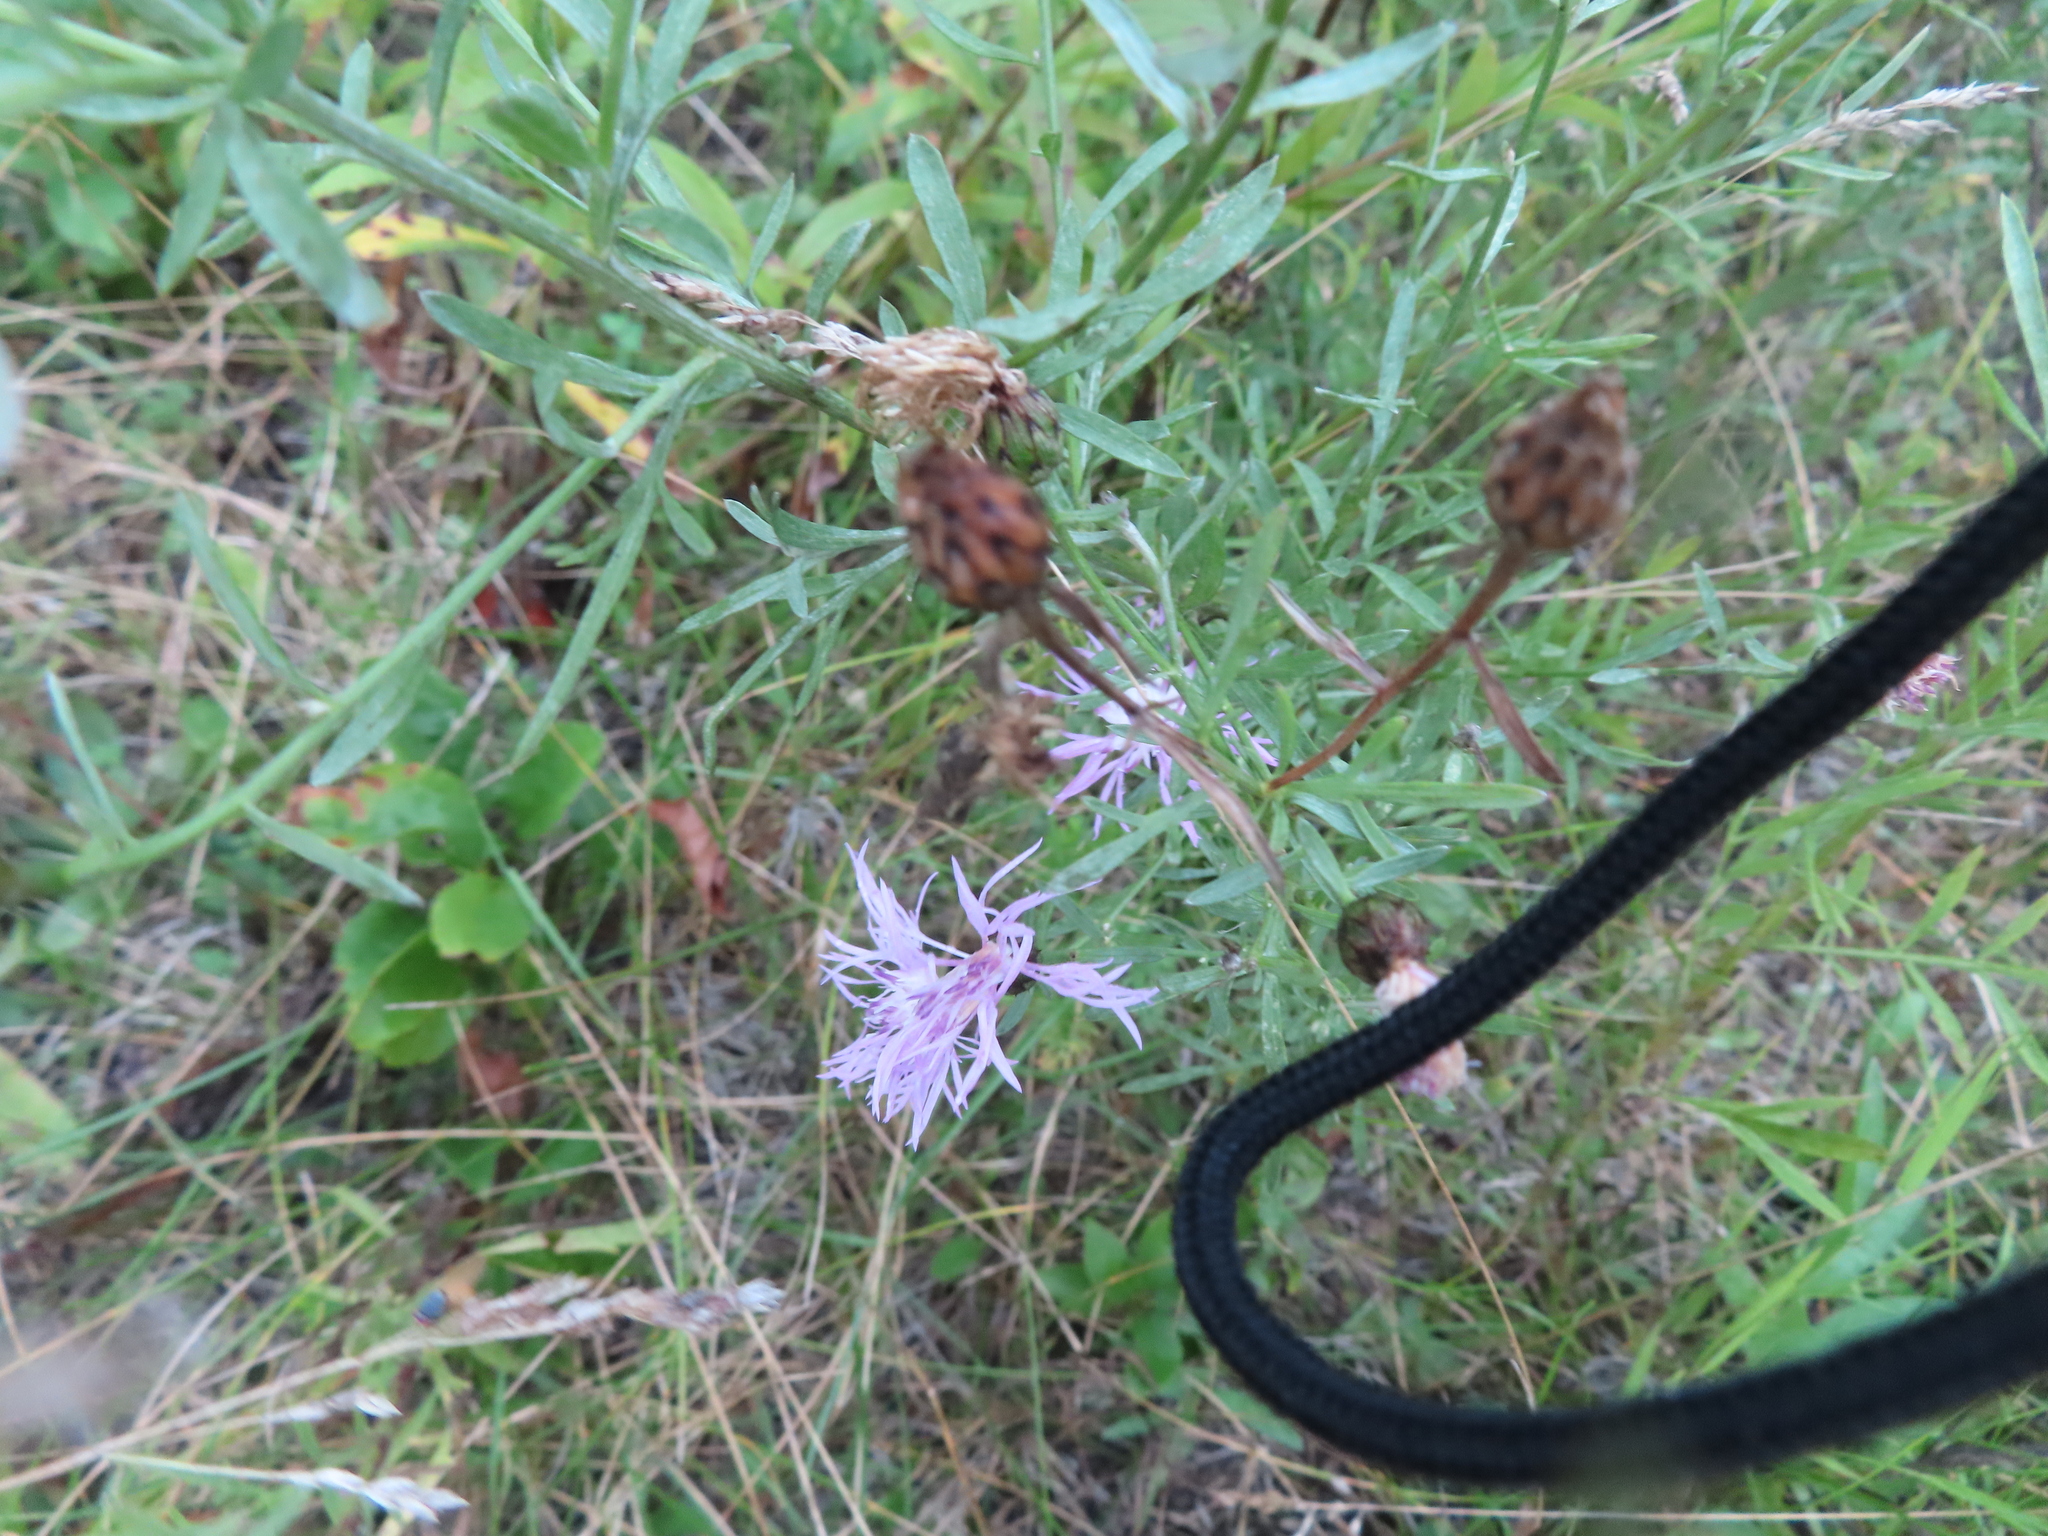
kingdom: Plantae
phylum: Tracheophyta
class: Magnoliopsida
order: Asterales
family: Asteraceae
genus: Centaurea
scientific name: Centaurea stoebe
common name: Spotted knapweed
